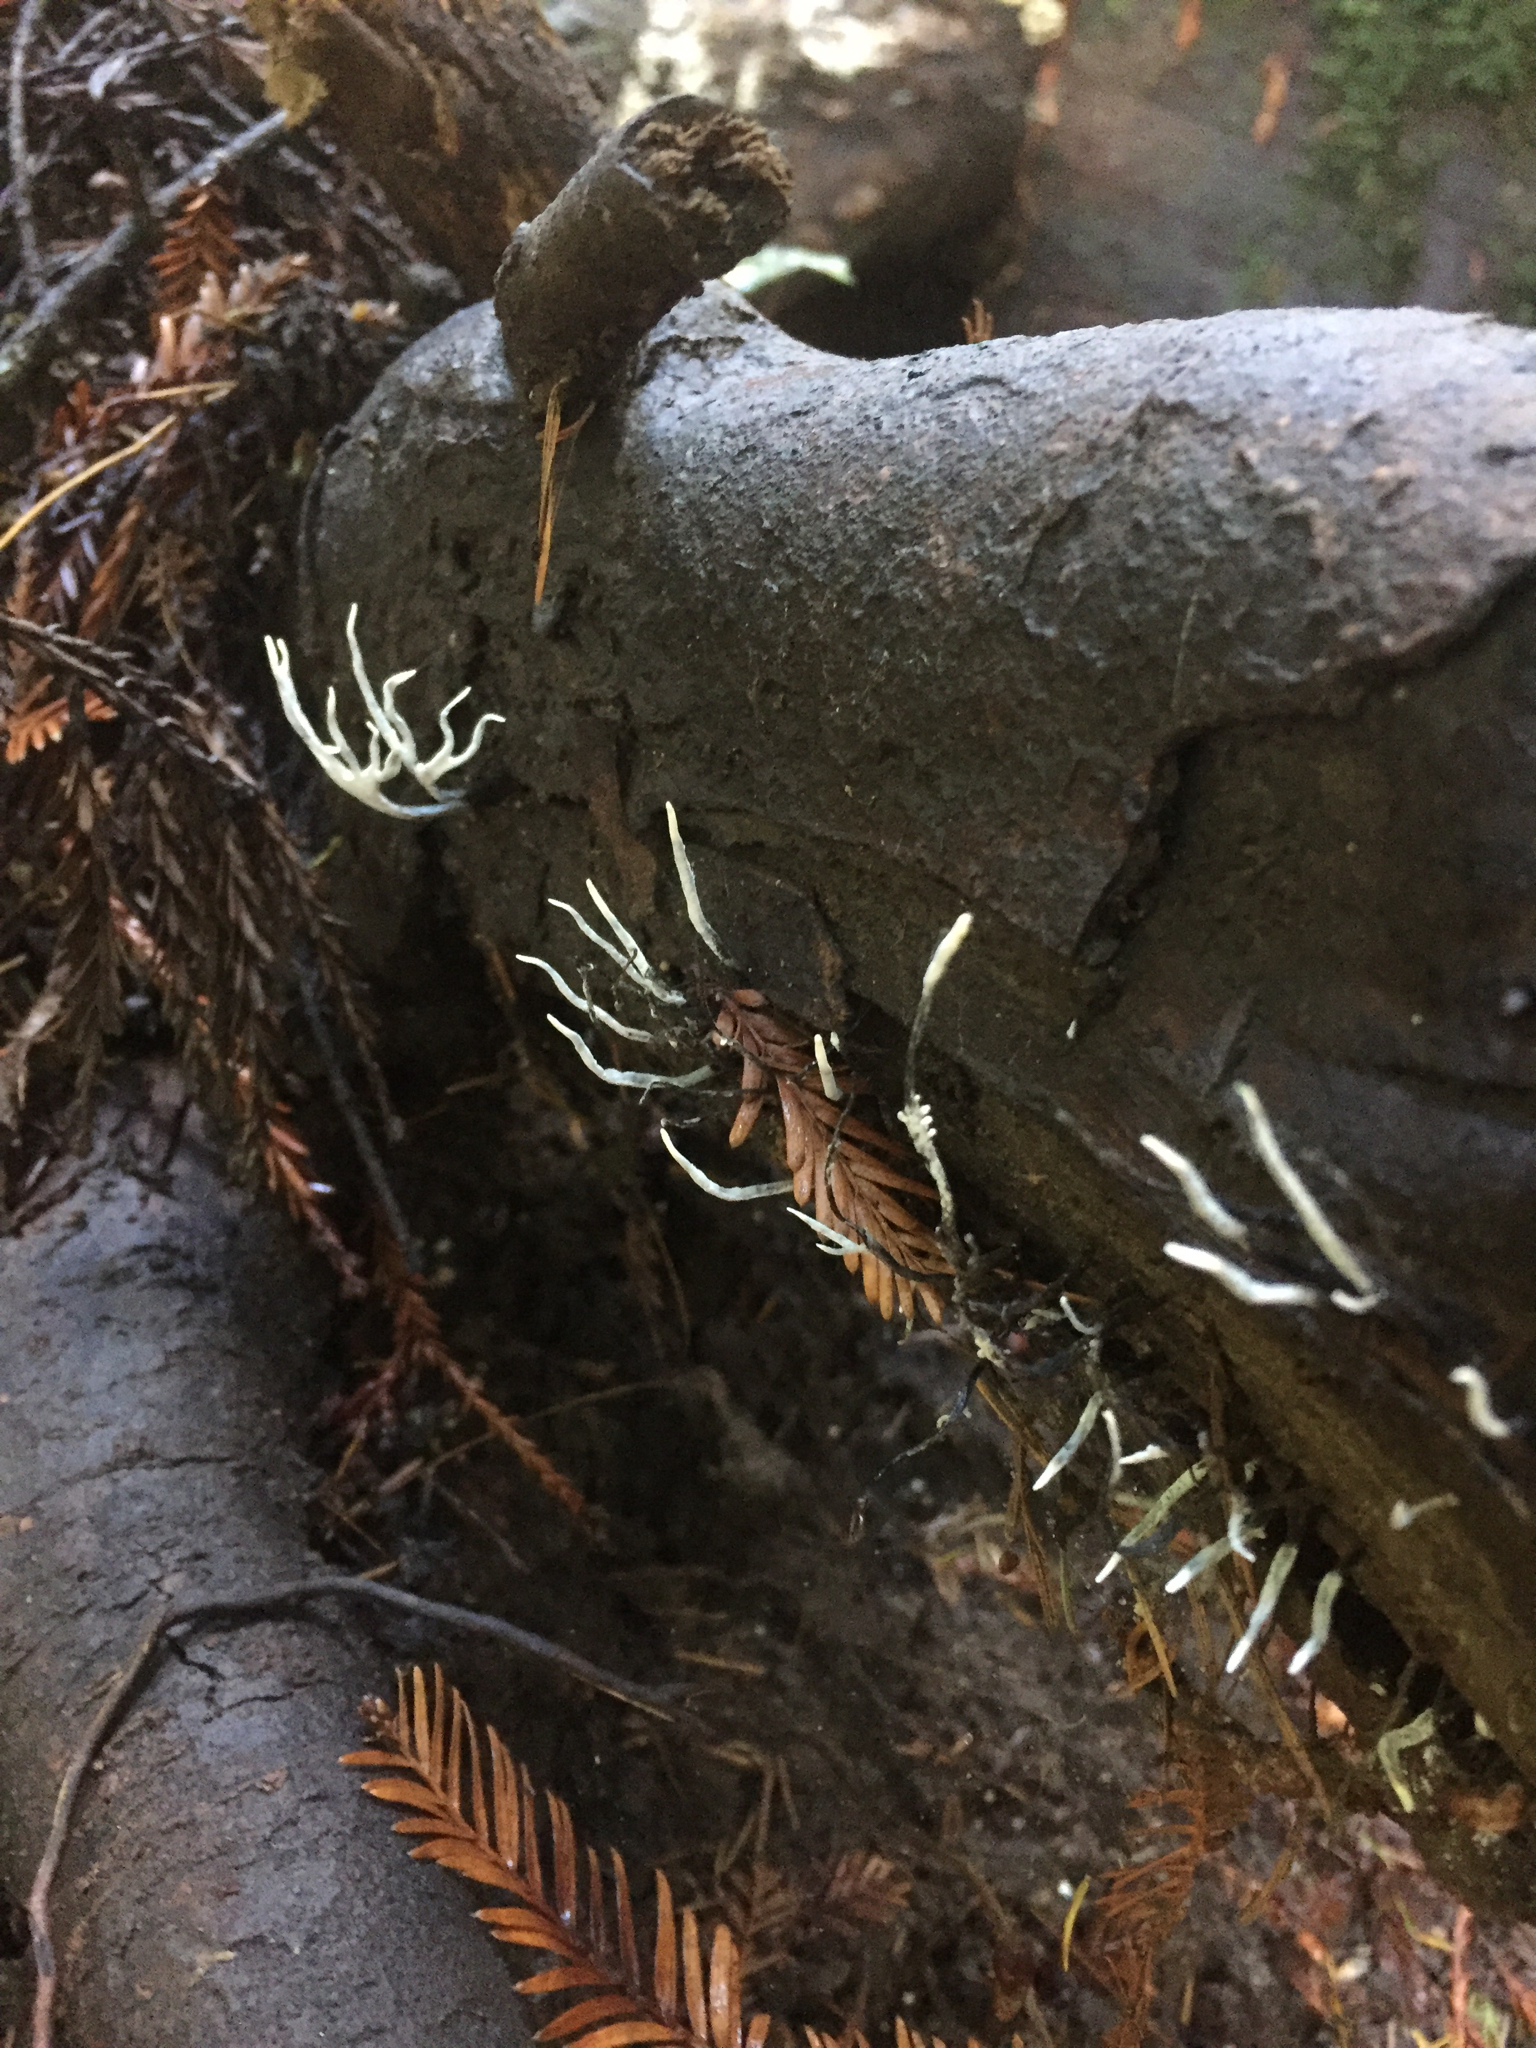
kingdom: Fungi
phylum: Ascomycota
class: Sordariomycetes
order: Xylariales
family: Xylariaceae
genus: Xylaria
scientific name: Xylaria hypoxylon
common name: Candle-snuff fungus
